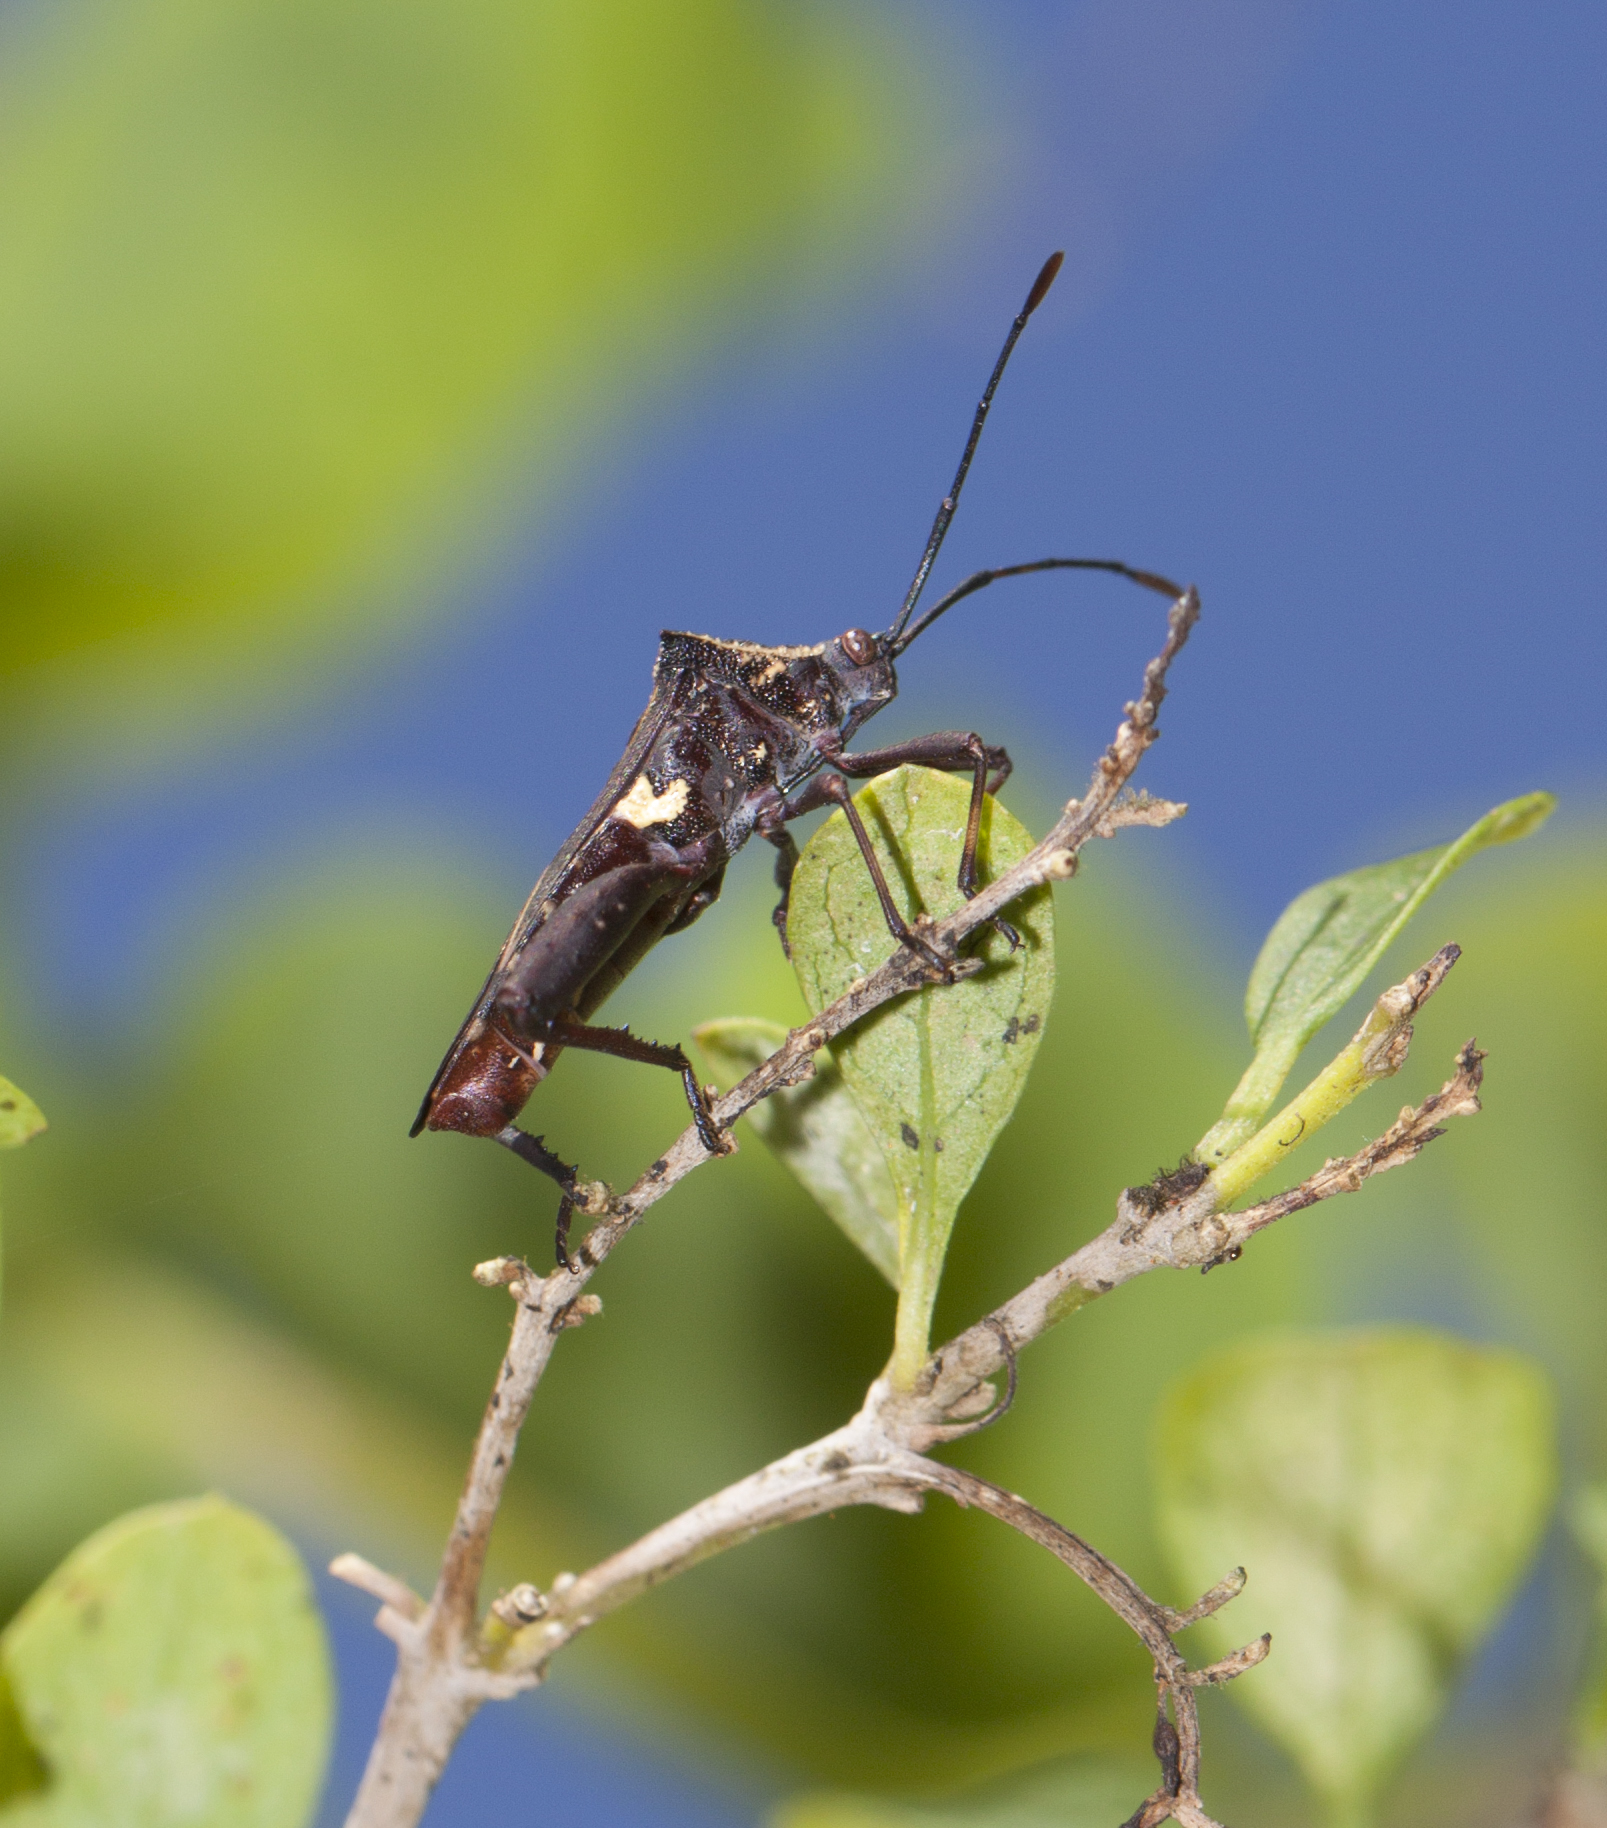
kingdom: Animalia
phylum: Arthropoda
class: Insecta
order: Hemiptera
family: Coreidae
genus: Acanthocerus
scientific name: Acanthocerus crucifer
